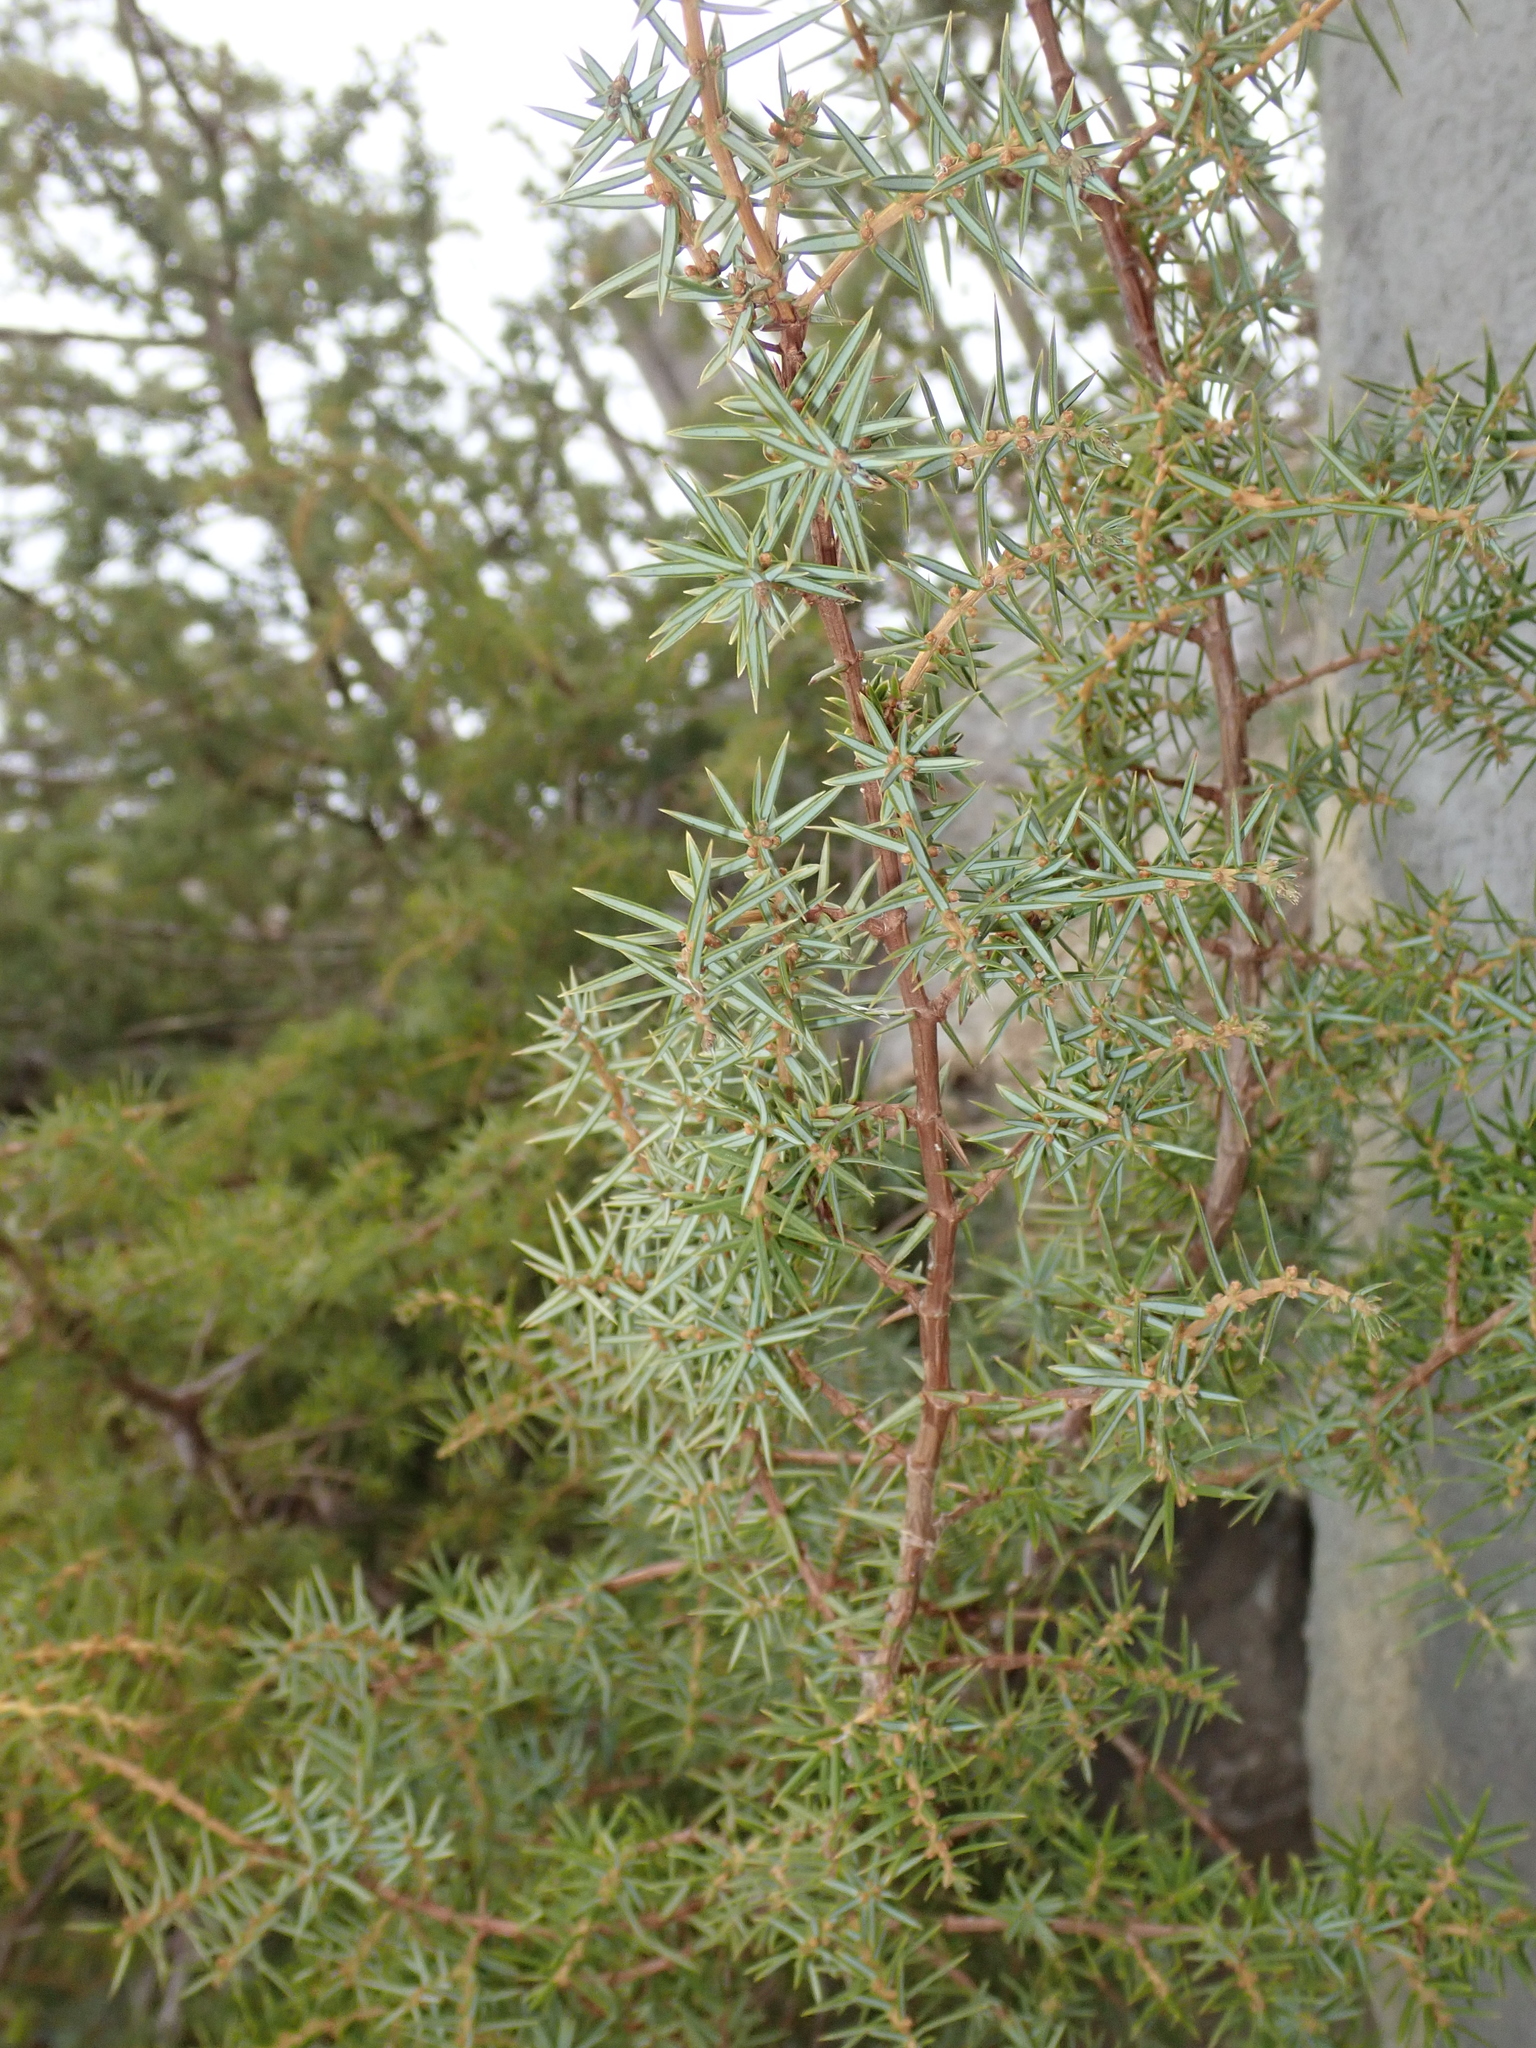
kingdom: Plantae
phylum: Tracheophyta
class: Pinopsida
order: Pinales
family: Cupressaceae
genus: Juniperus
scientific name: Juniperus communis
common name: Common juniper
